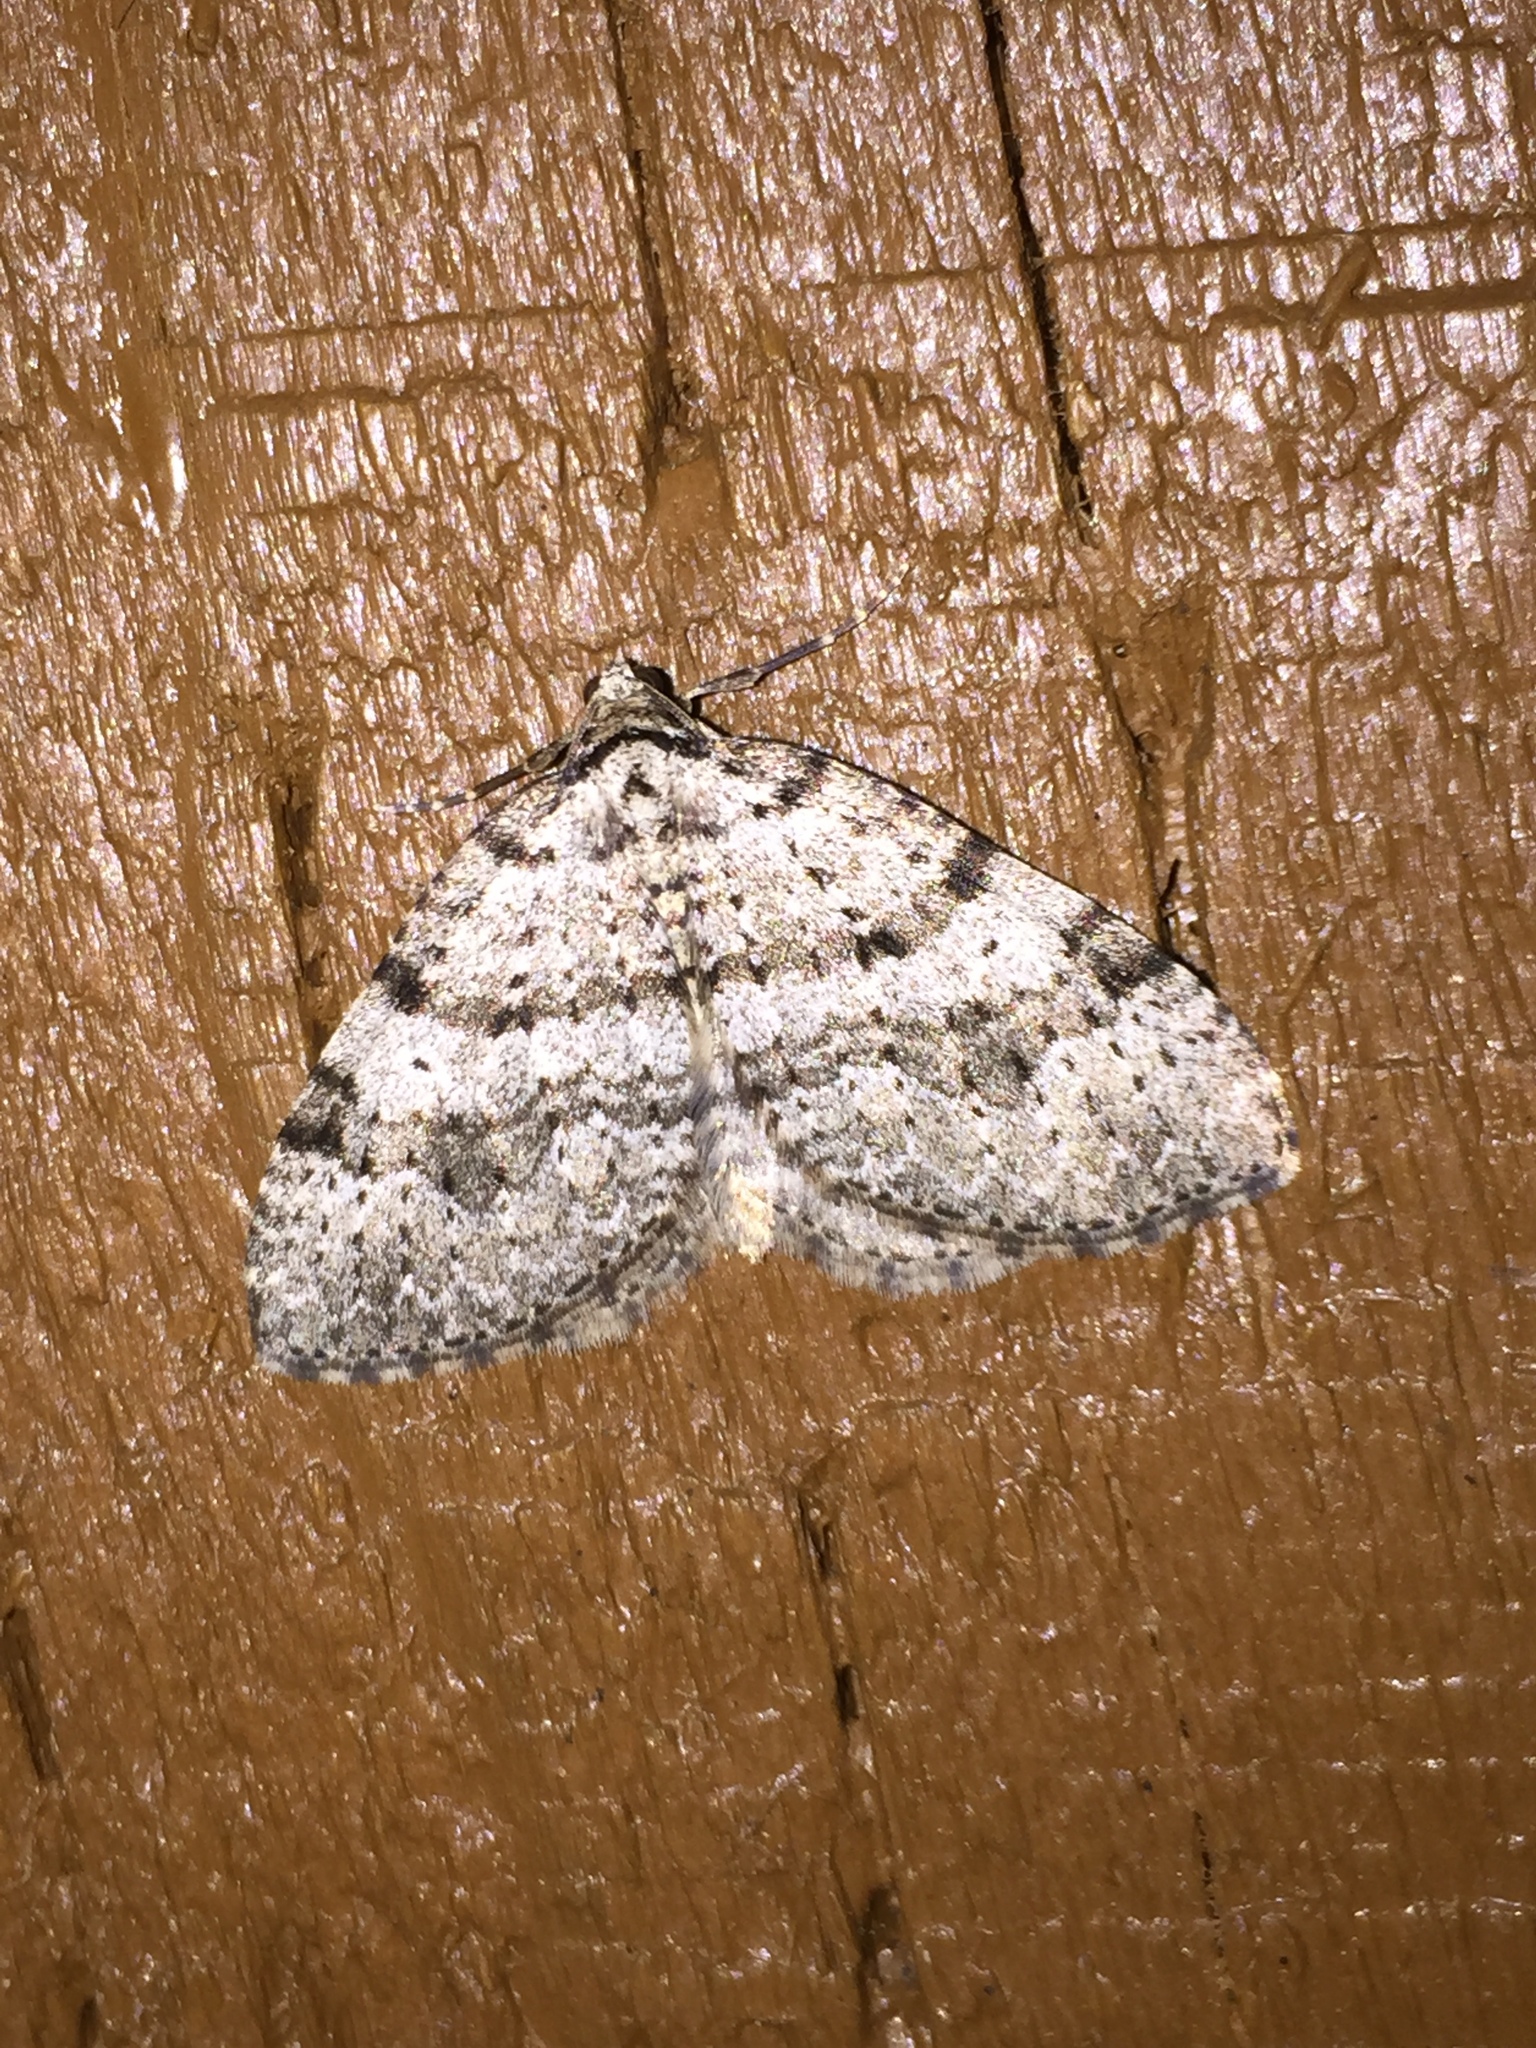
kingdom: Animalia
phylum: Arthropoda
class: Insecta
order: Lepidoptera
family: Geometridae
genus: Perizoma
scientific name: Perizoma curvilinea
